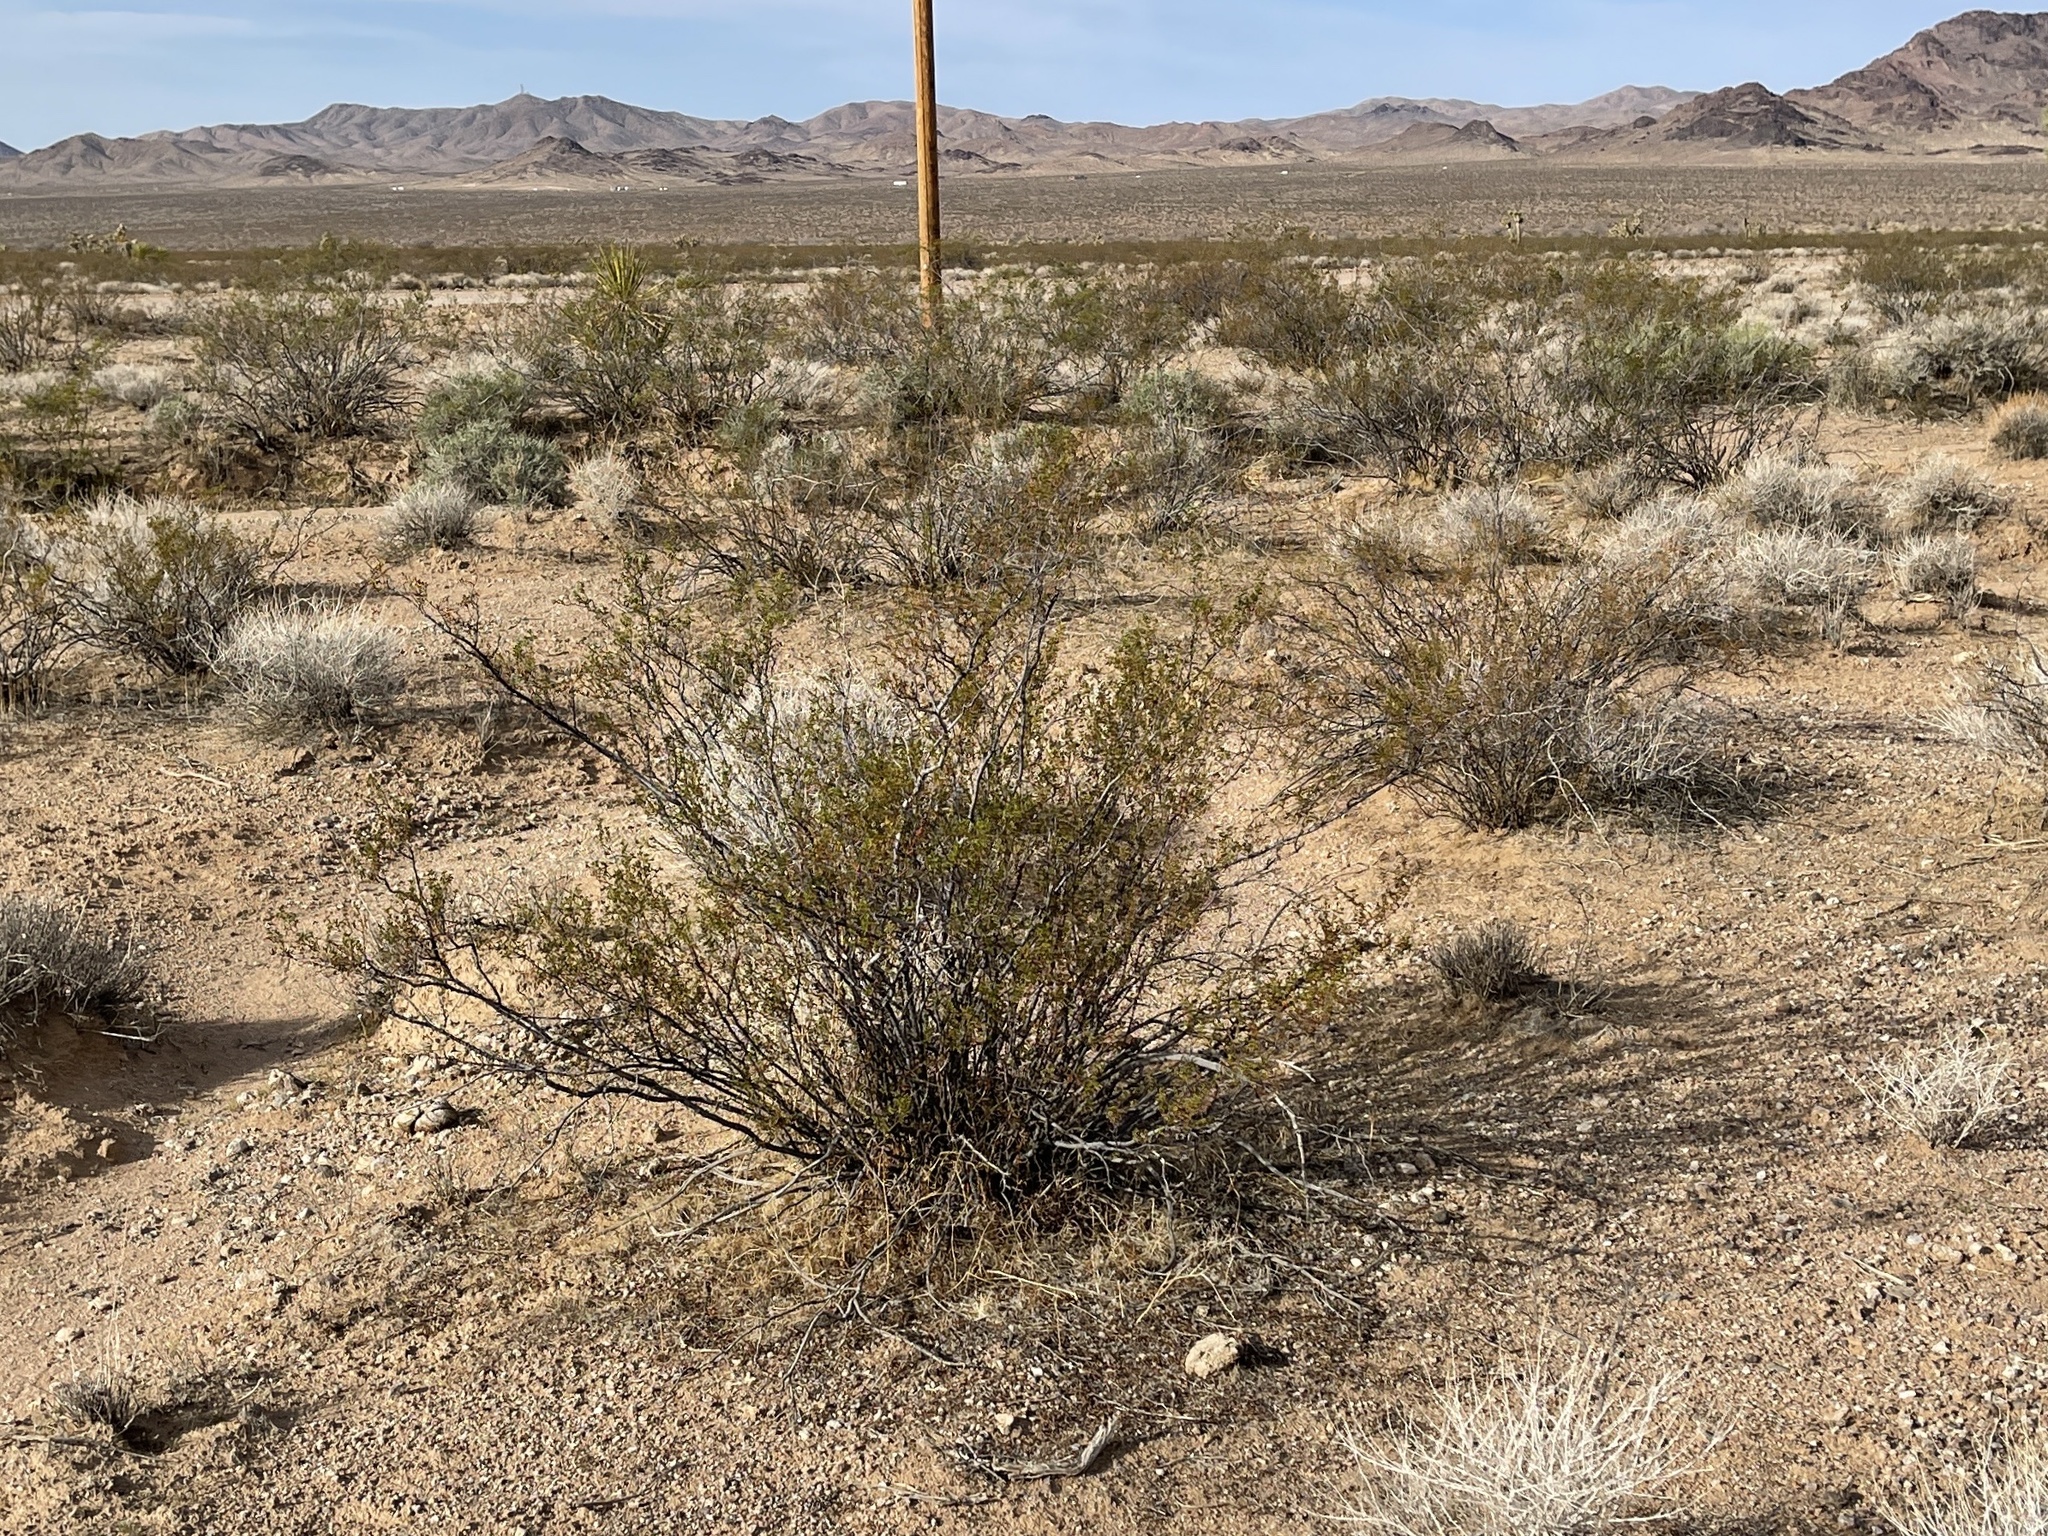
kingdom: Plantae
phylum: Tracheophyta
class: Magnoliopsida
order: Zygophyllales
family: Zygophyllaceae
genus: Larrea
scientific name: Larrea tridentata
